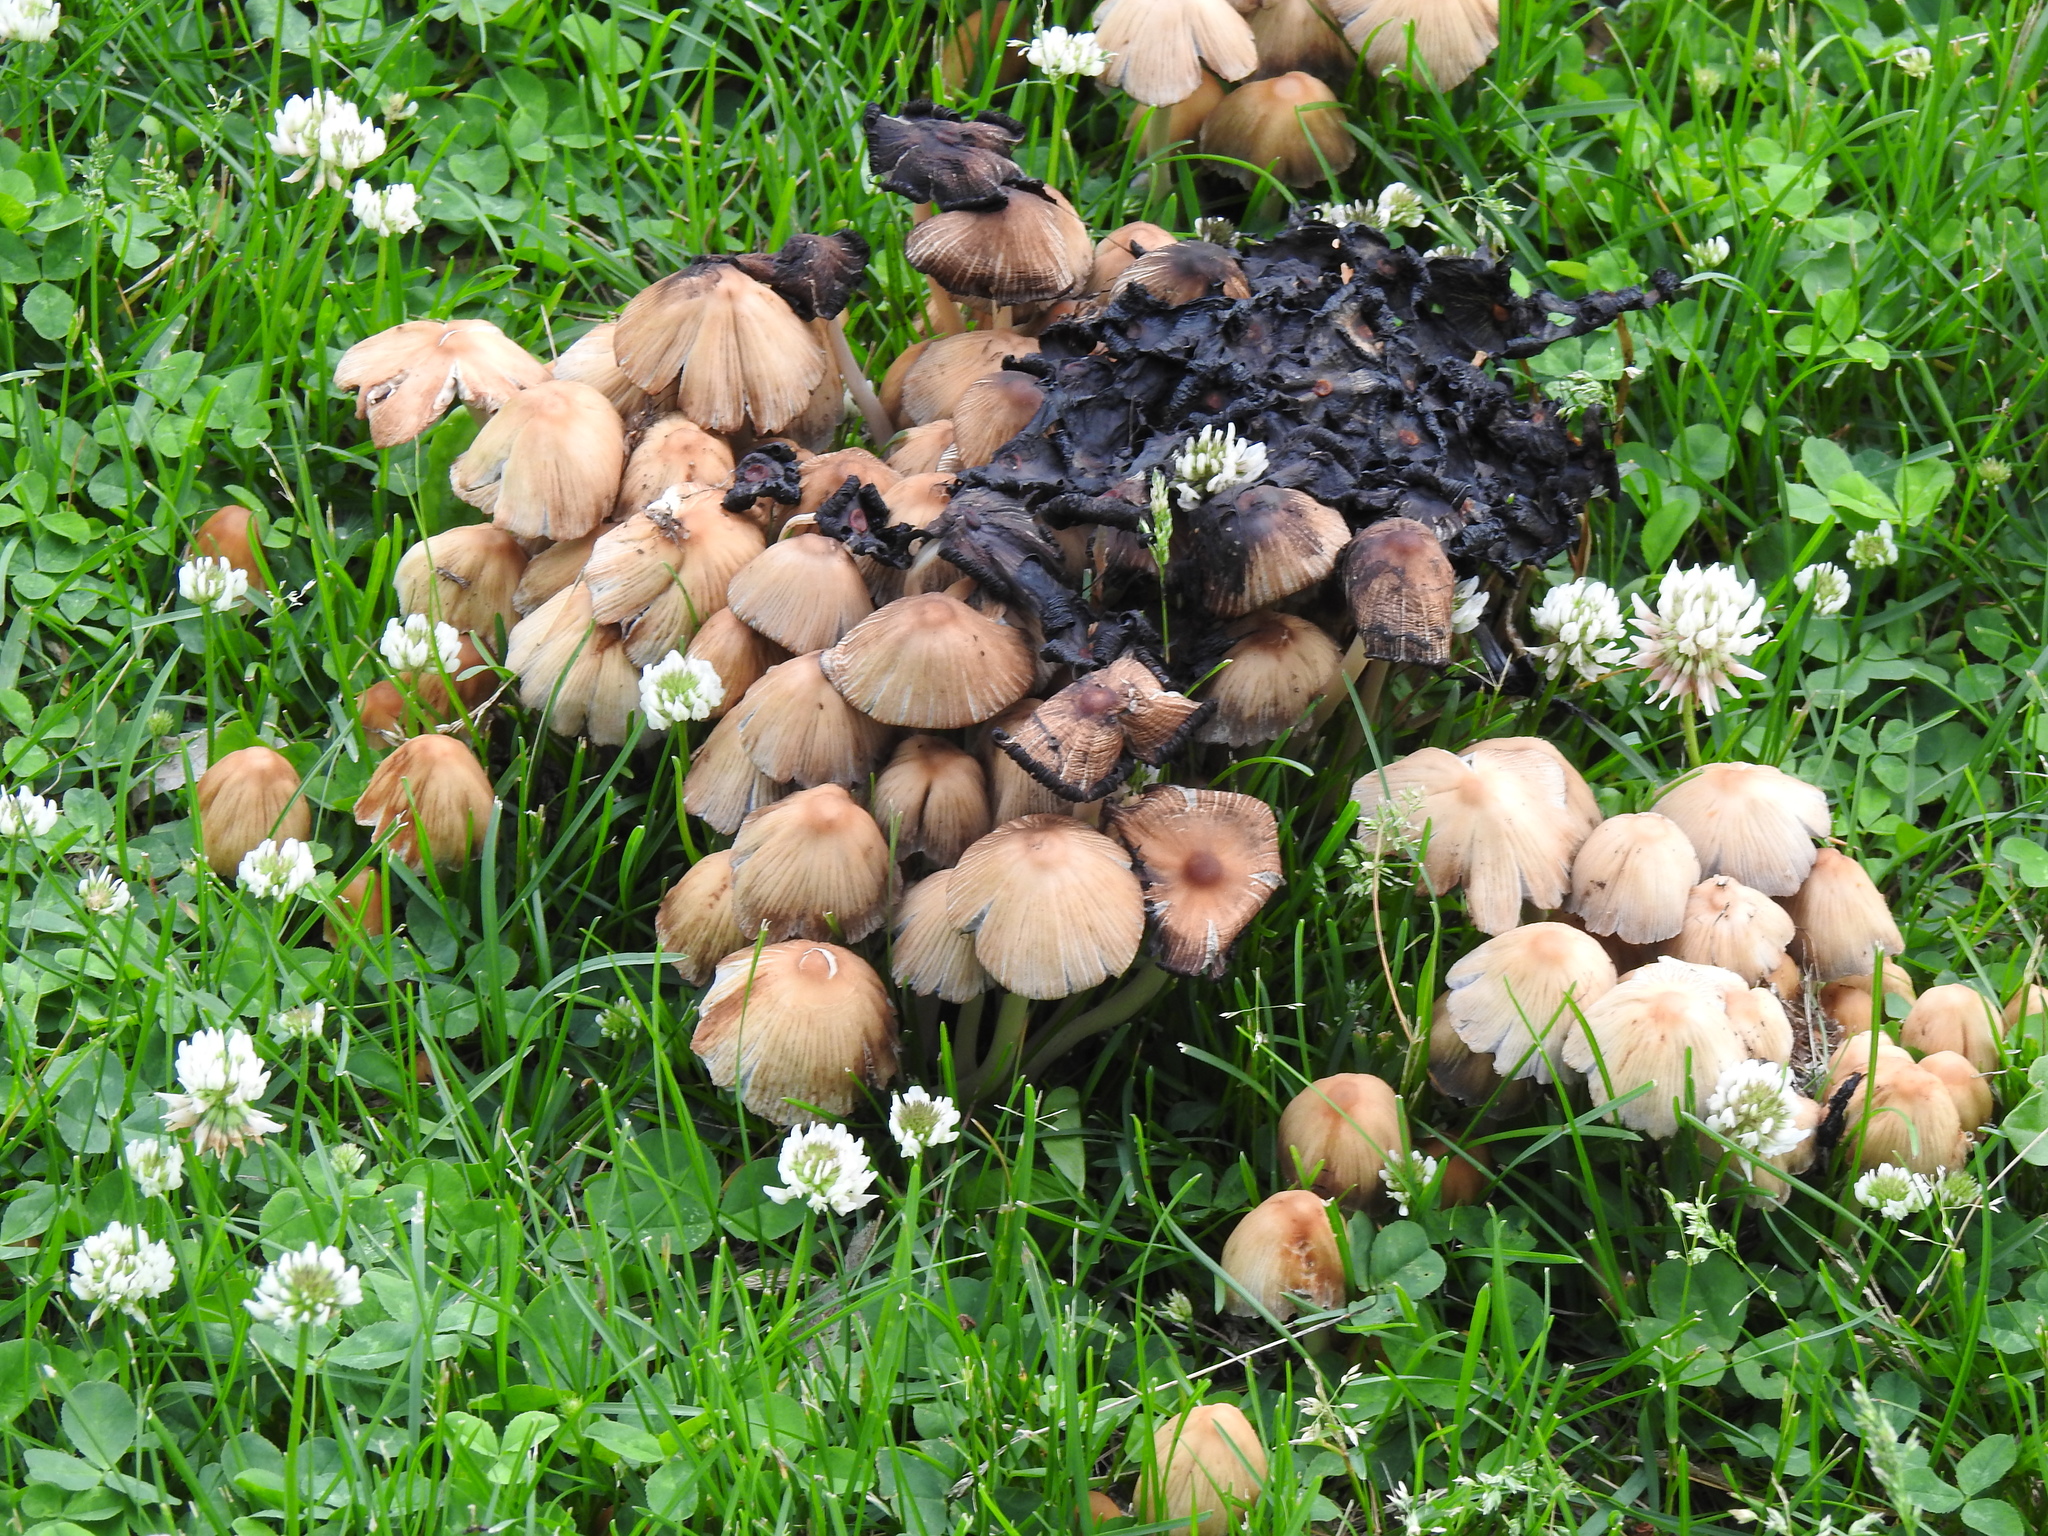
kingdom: Fungi
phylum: Basidiomycota
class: Agaricomycetes
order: Agaricales
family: Psathyrellaceae
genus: Coprinellus
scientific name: Coprinellus micaceus
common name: Glistening ink-cap
